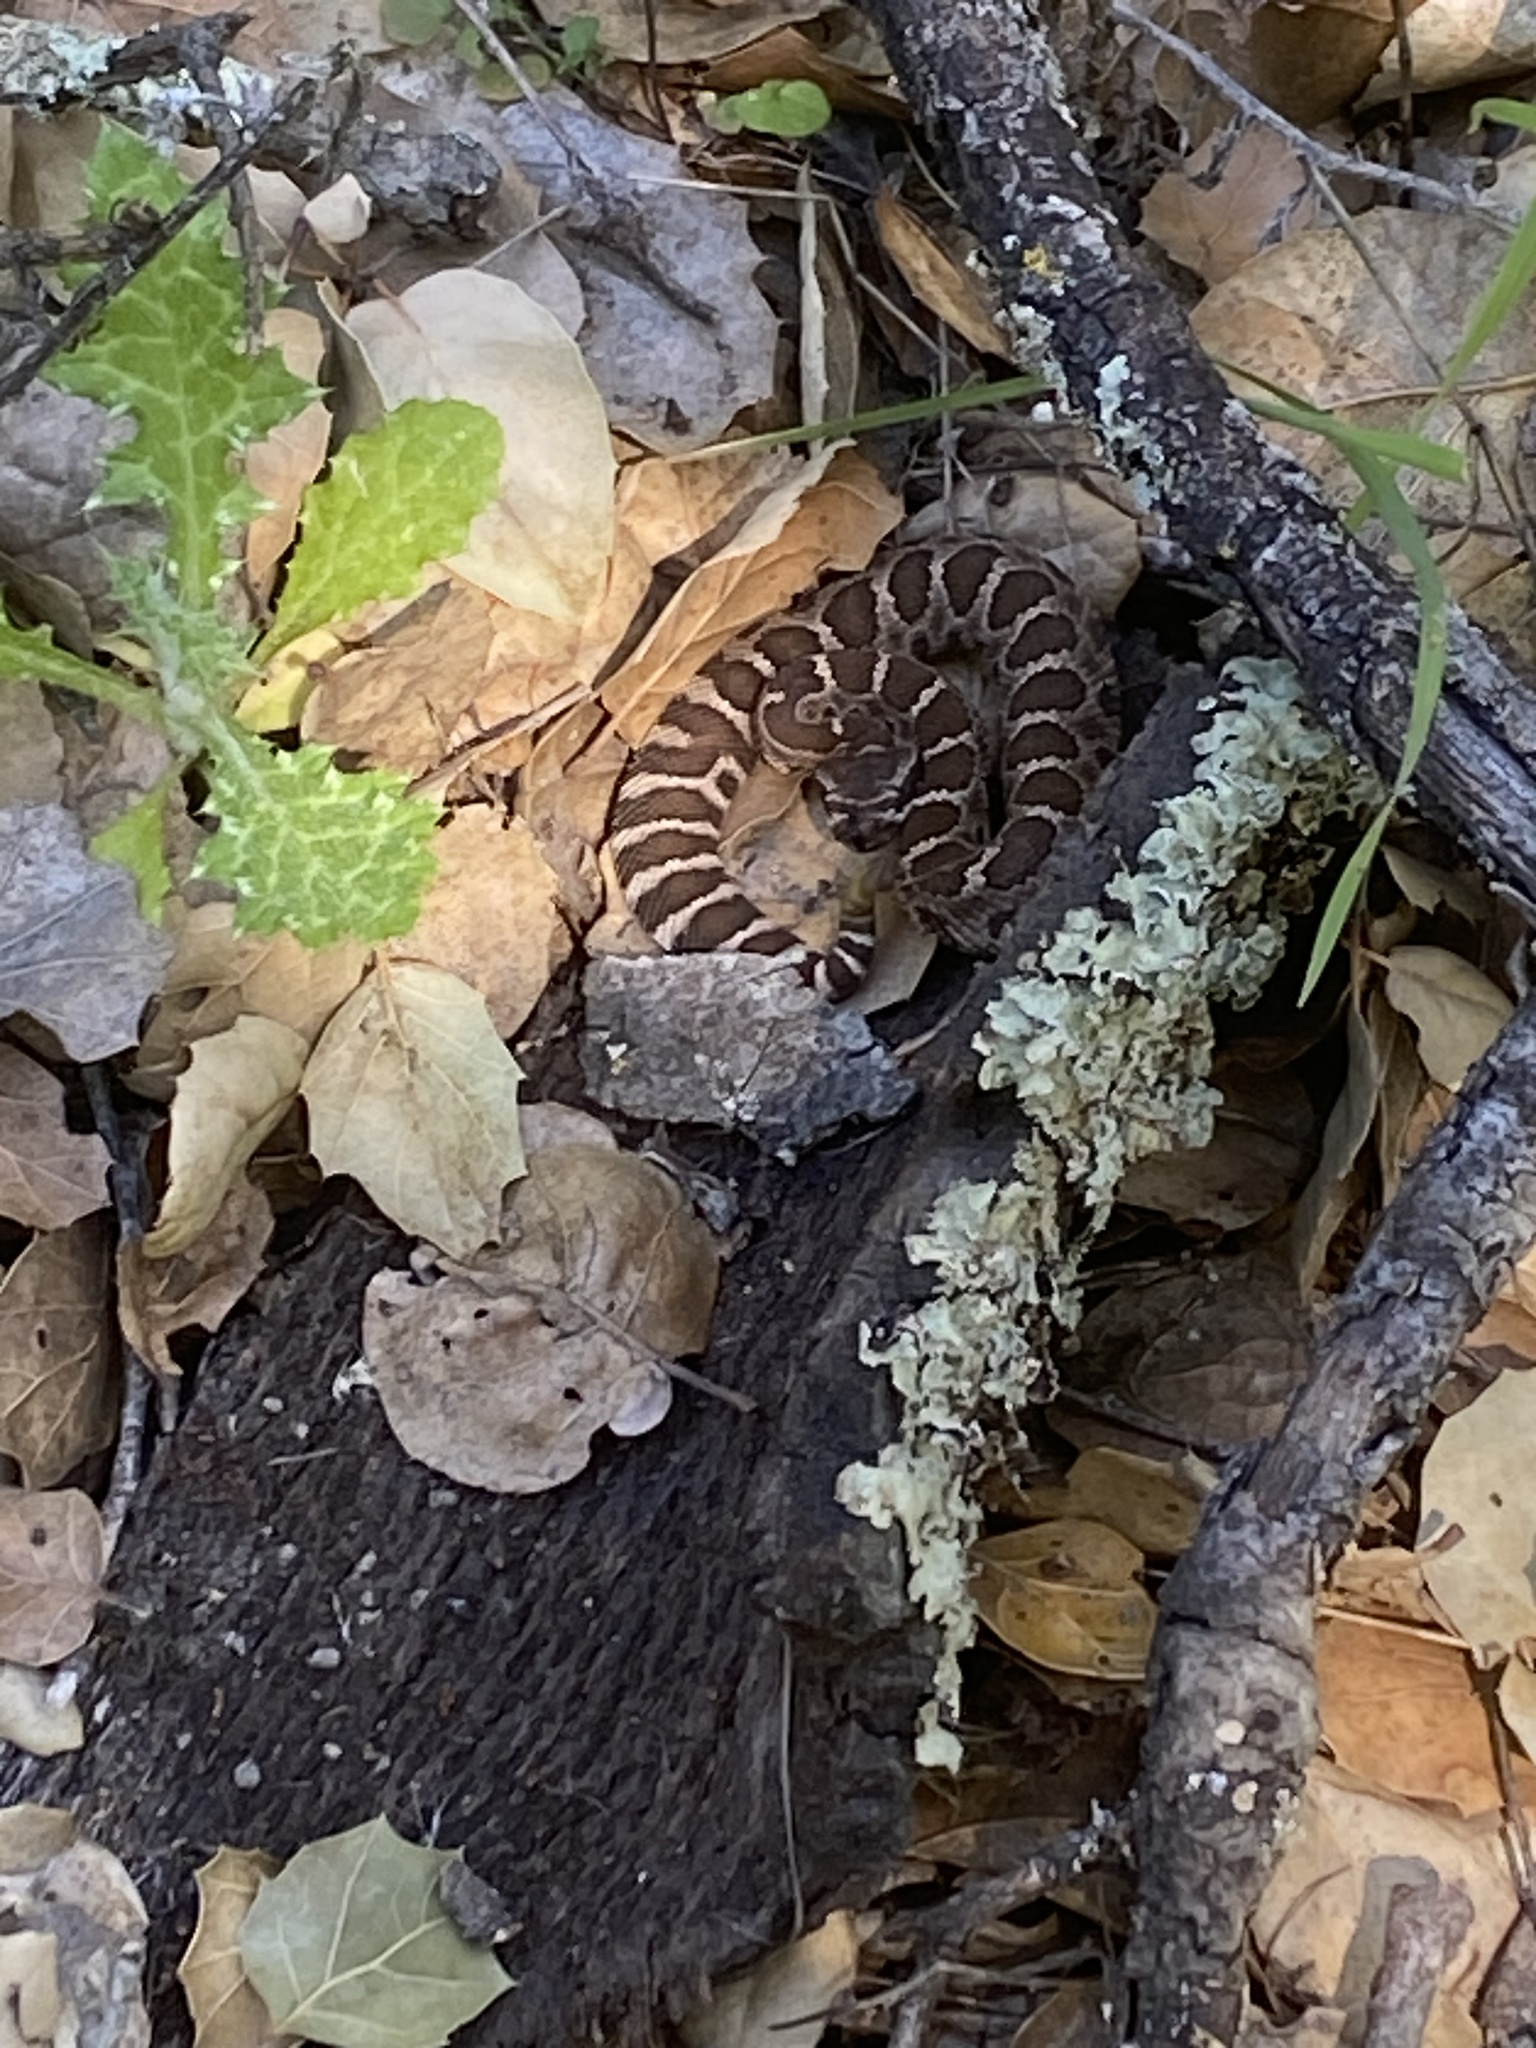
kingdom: Animalia
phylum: Chordata
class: Squamata
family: Viperidae
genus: Crotalus
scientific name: Crotalus oreganus
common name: Abyssus
